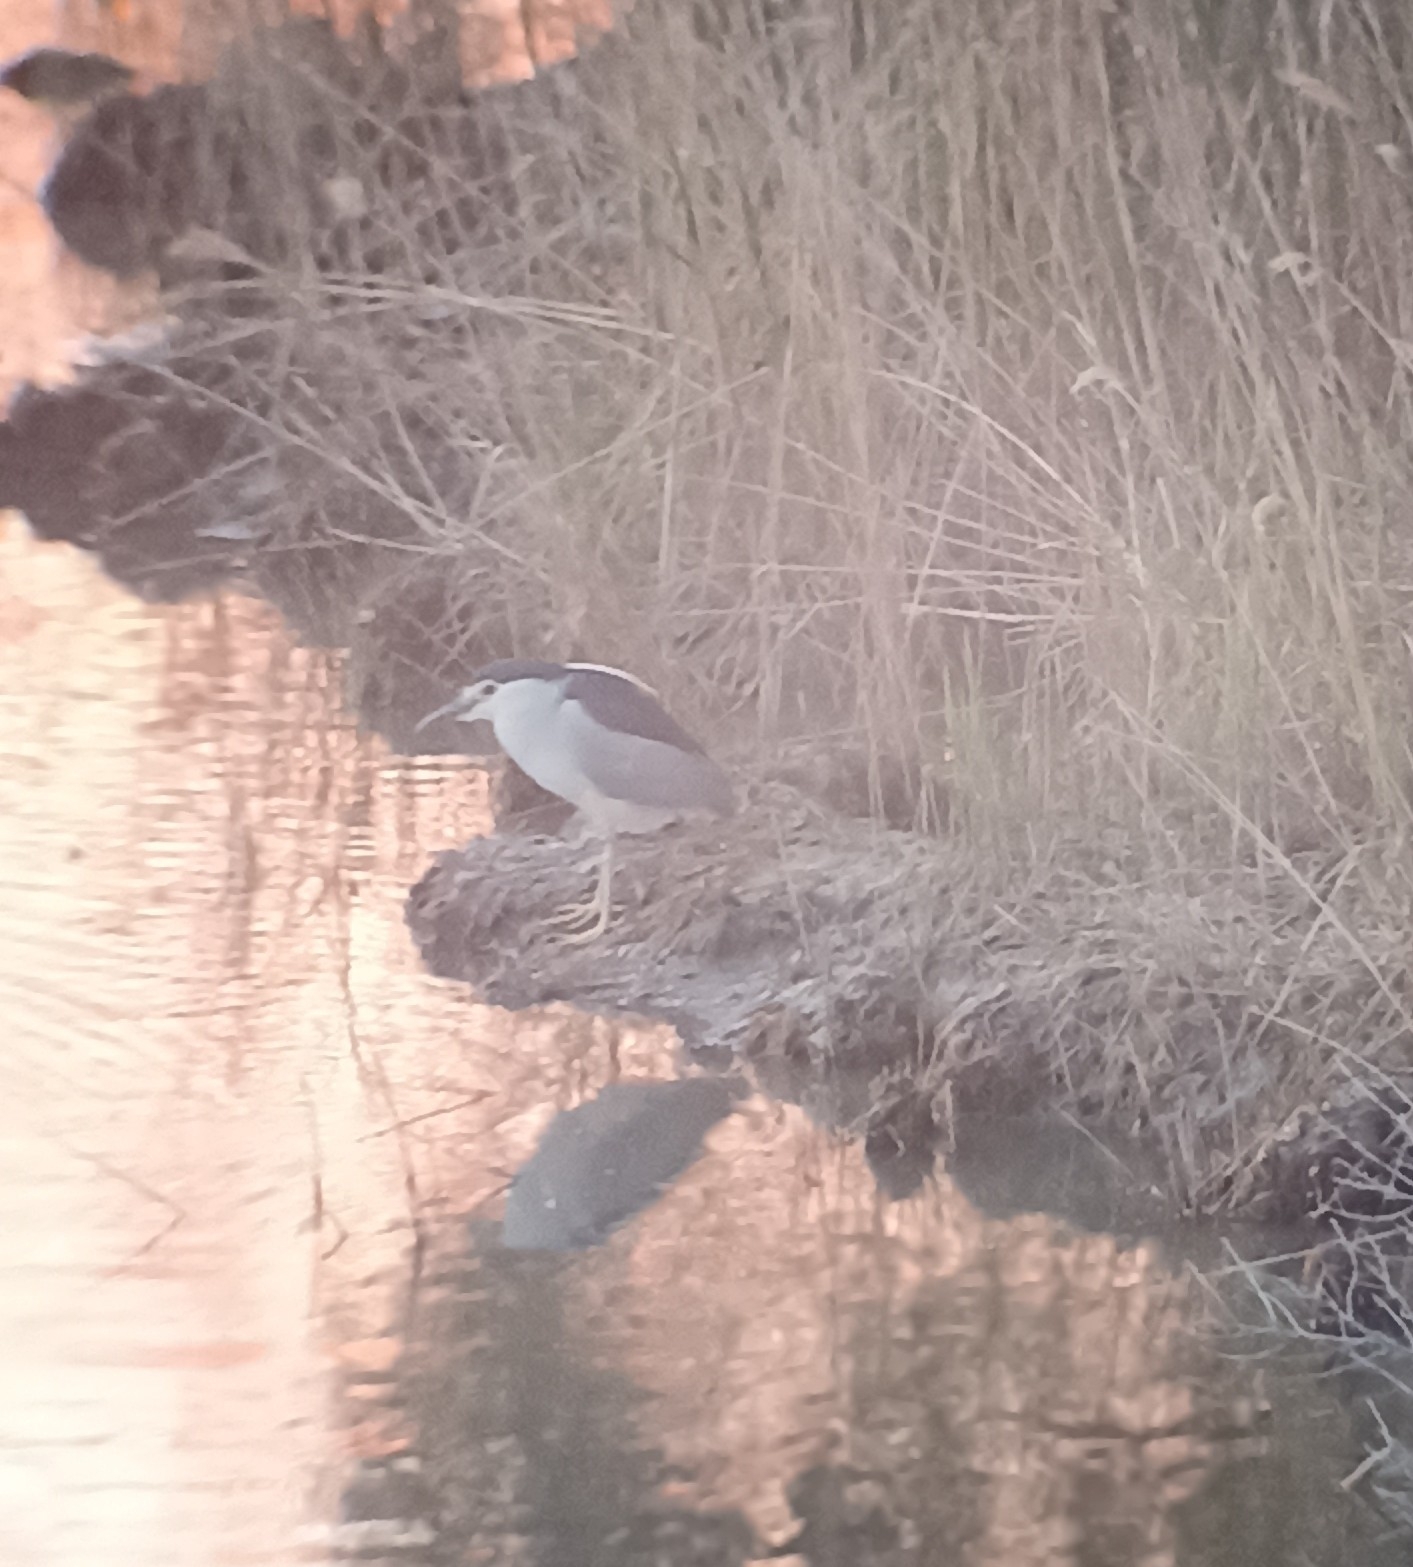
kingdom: Animalia
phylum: Chordata
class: Aves
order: Pelecaniformes
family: Ardeidae
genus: Nycticorax
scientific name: Nycticorax nycticorax
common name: Black-crowned night heron
